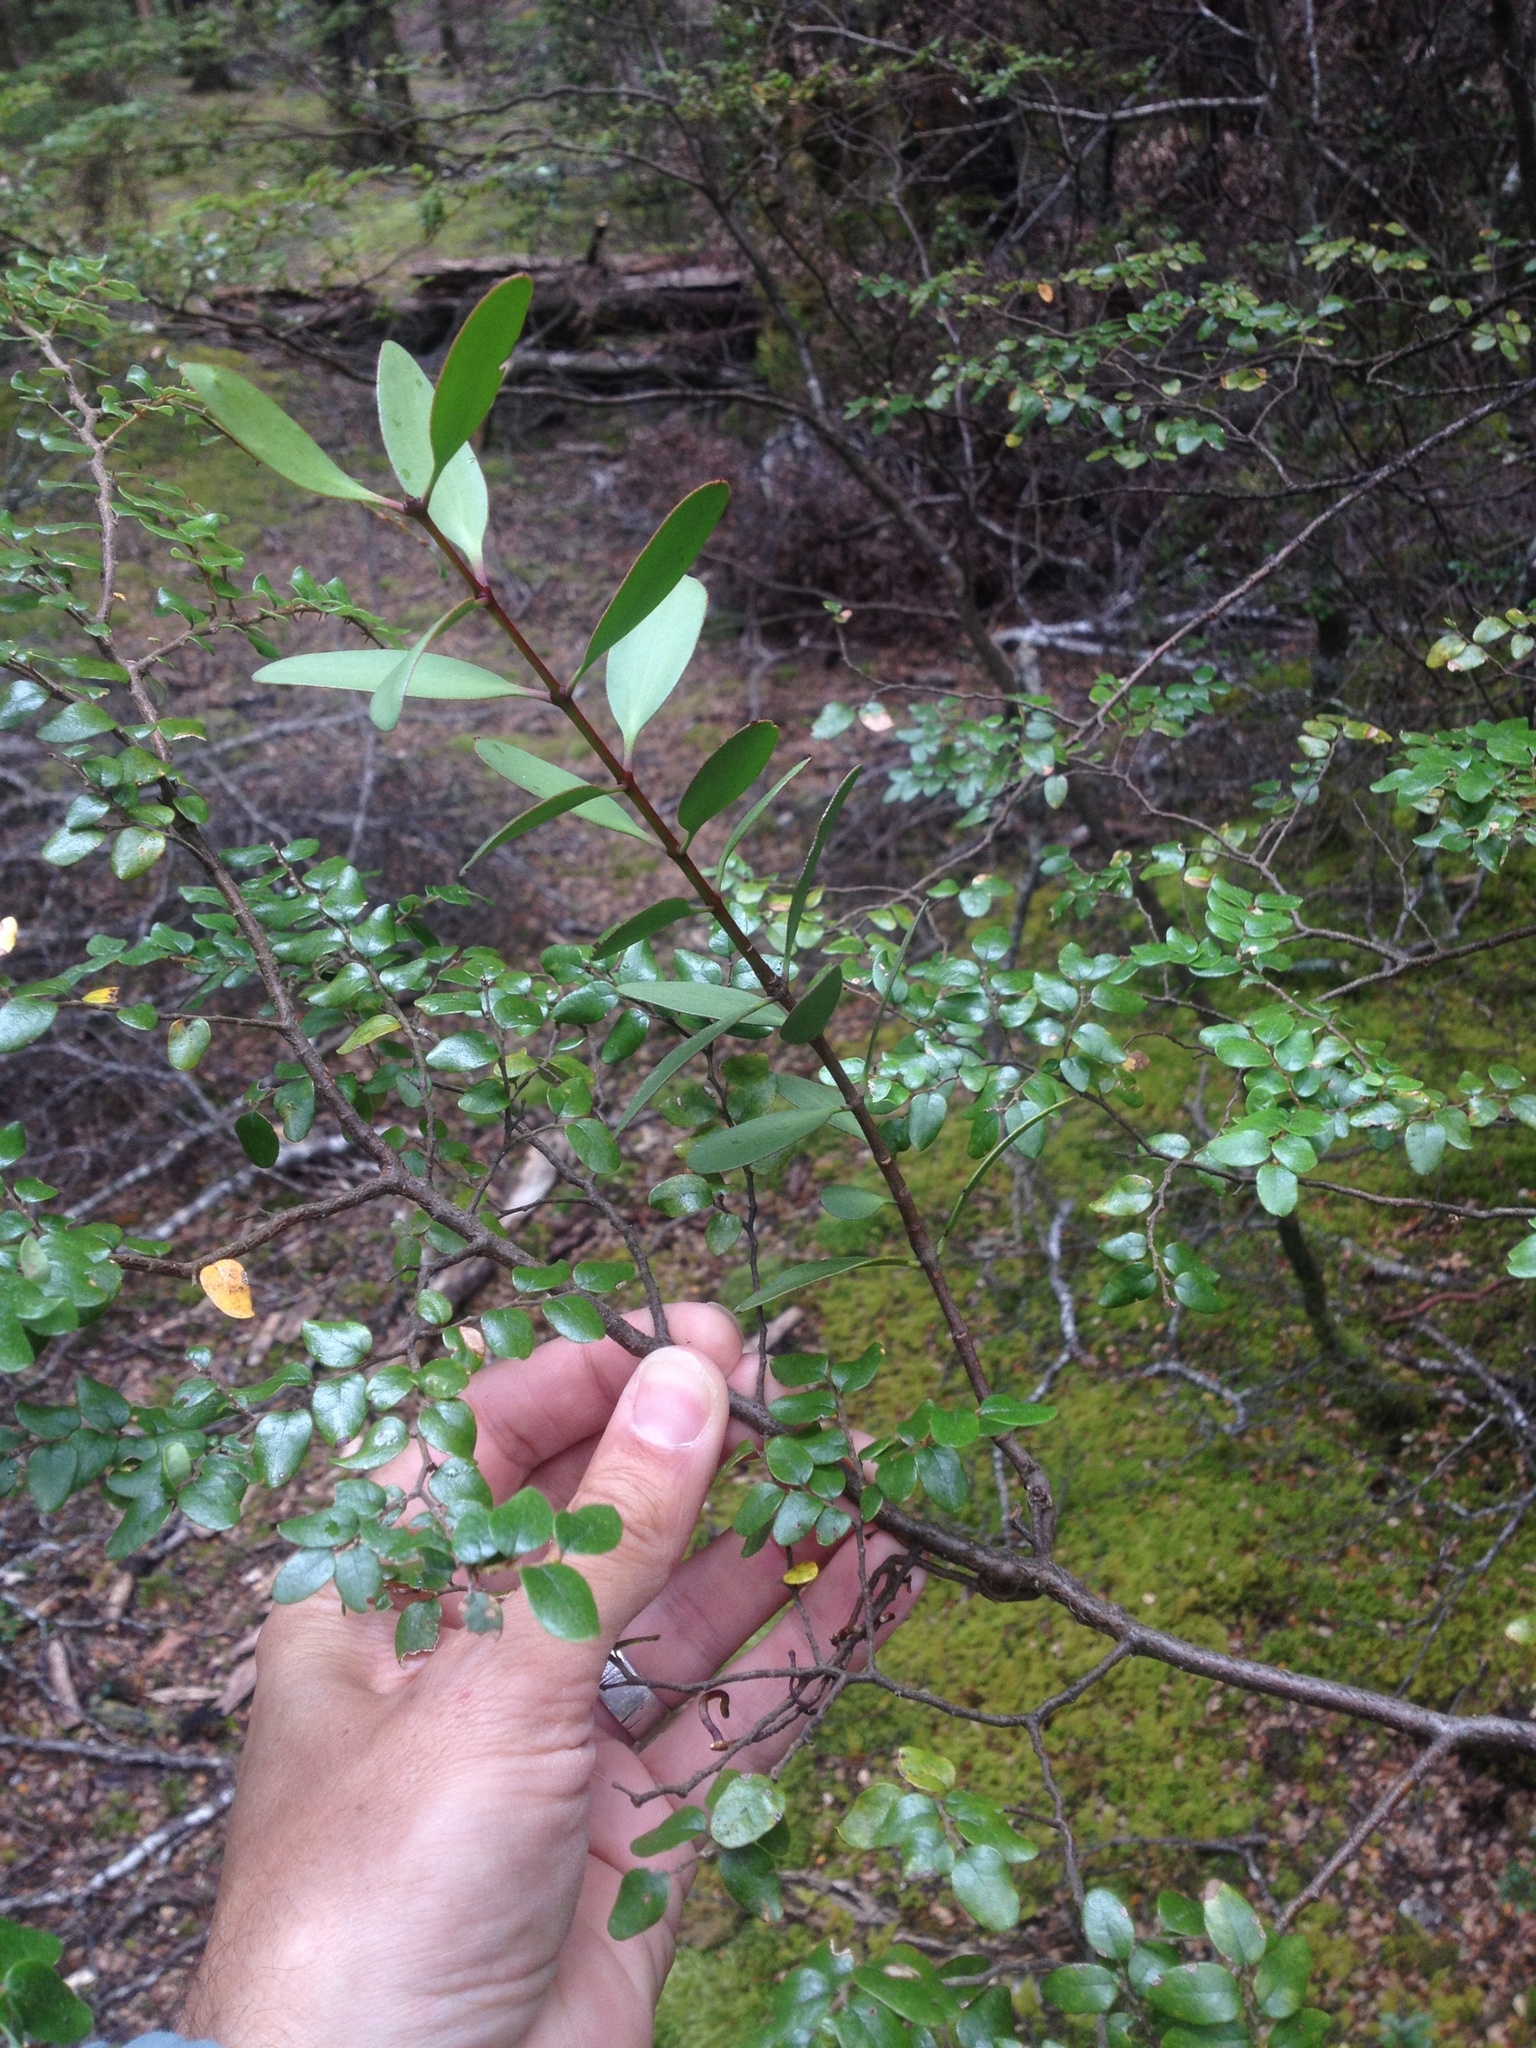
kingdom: Plantae
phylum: Tracheophyta
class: Magnoliopsida
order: Santalales
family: Loranthaceae
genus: Alepis
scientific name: Alepis flavida
